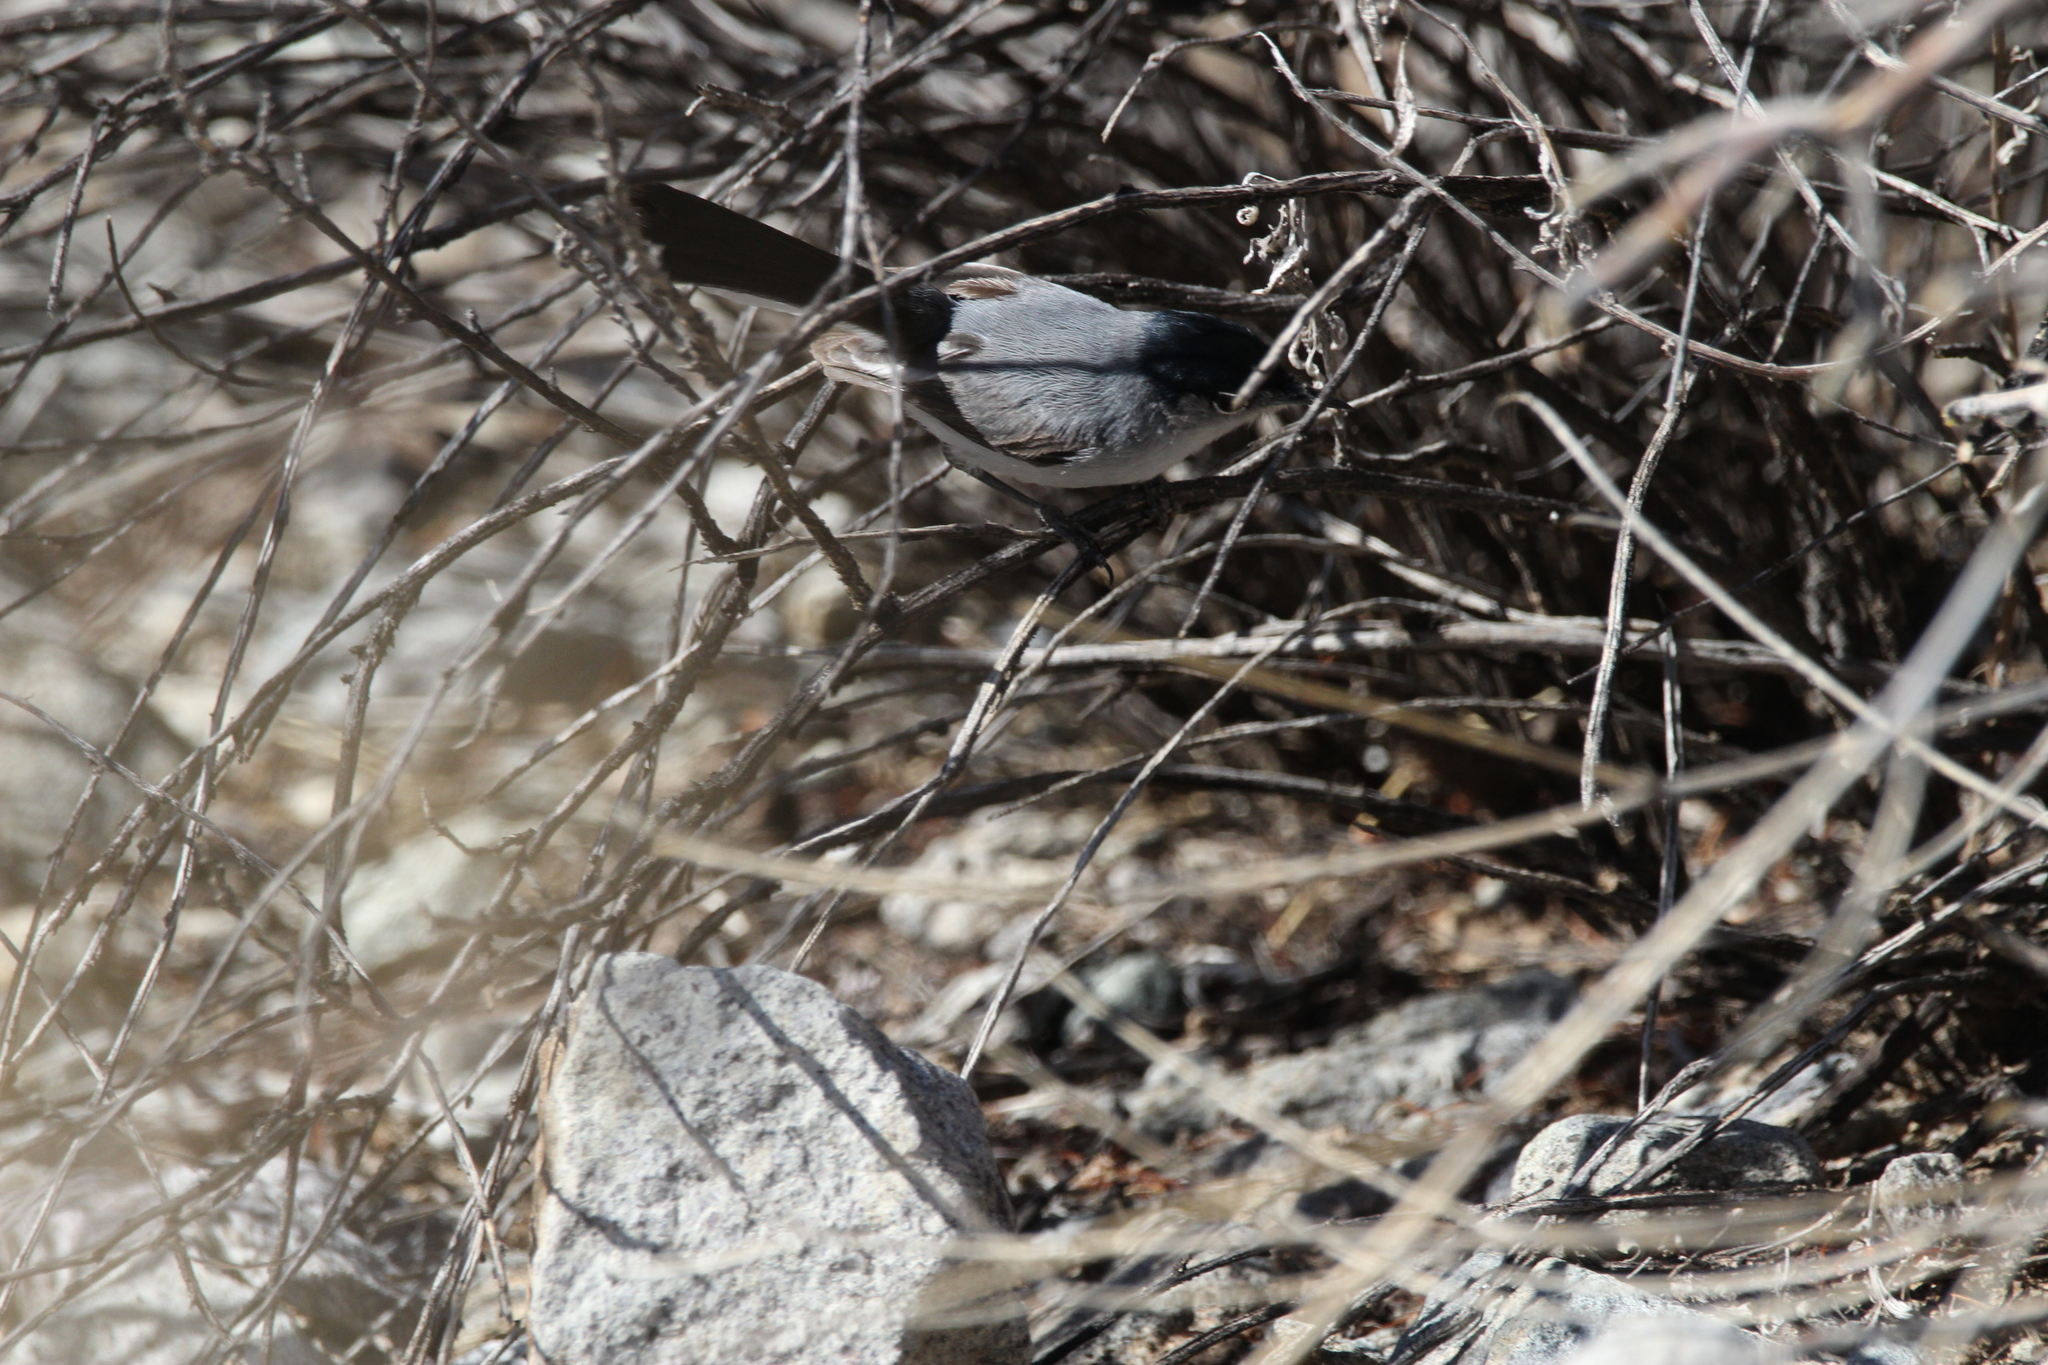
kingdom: Animalia
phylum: Chordata
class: Aves
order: Passeriformes
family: Polioptilidae
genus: Polioptila
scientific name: Polioptila melanura
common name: Black-tailed gnatcatcher
